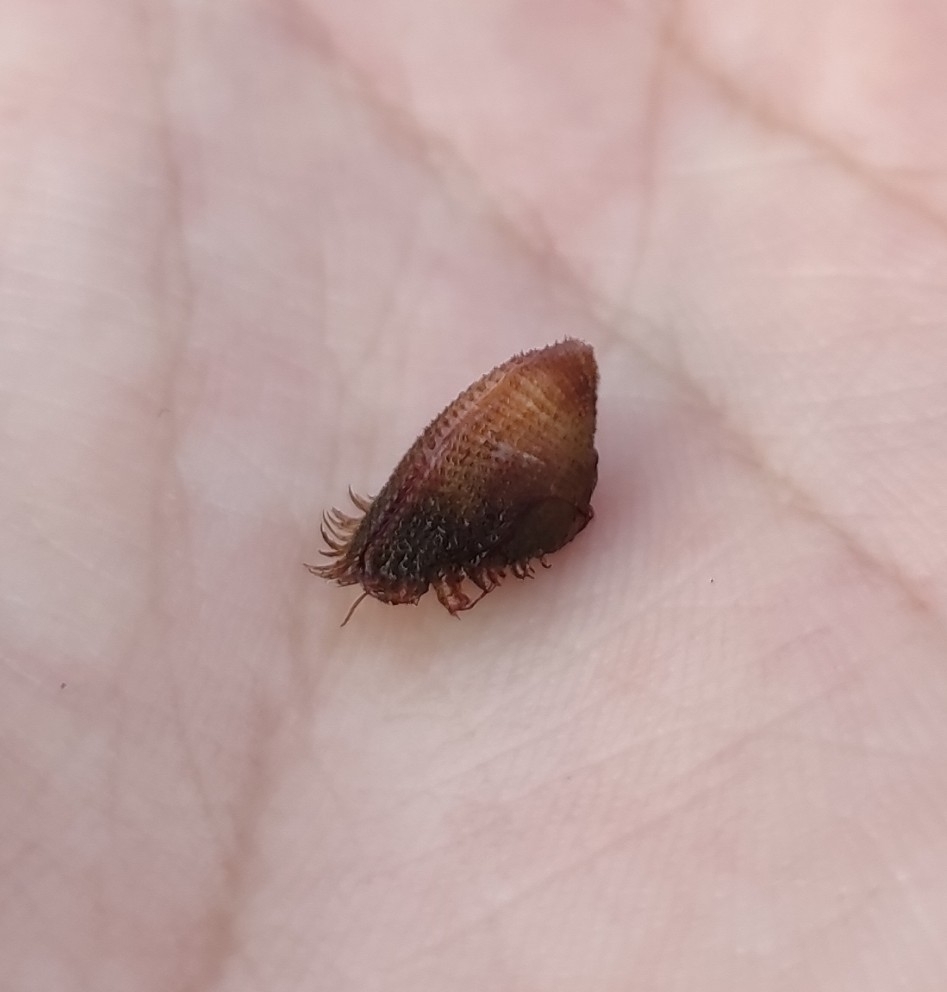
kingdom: Animalia
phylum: Mollusca
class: Bivalvia
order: Arcida
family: Arcidae
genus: Tetrarca
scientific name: Tetrarca boucardi
